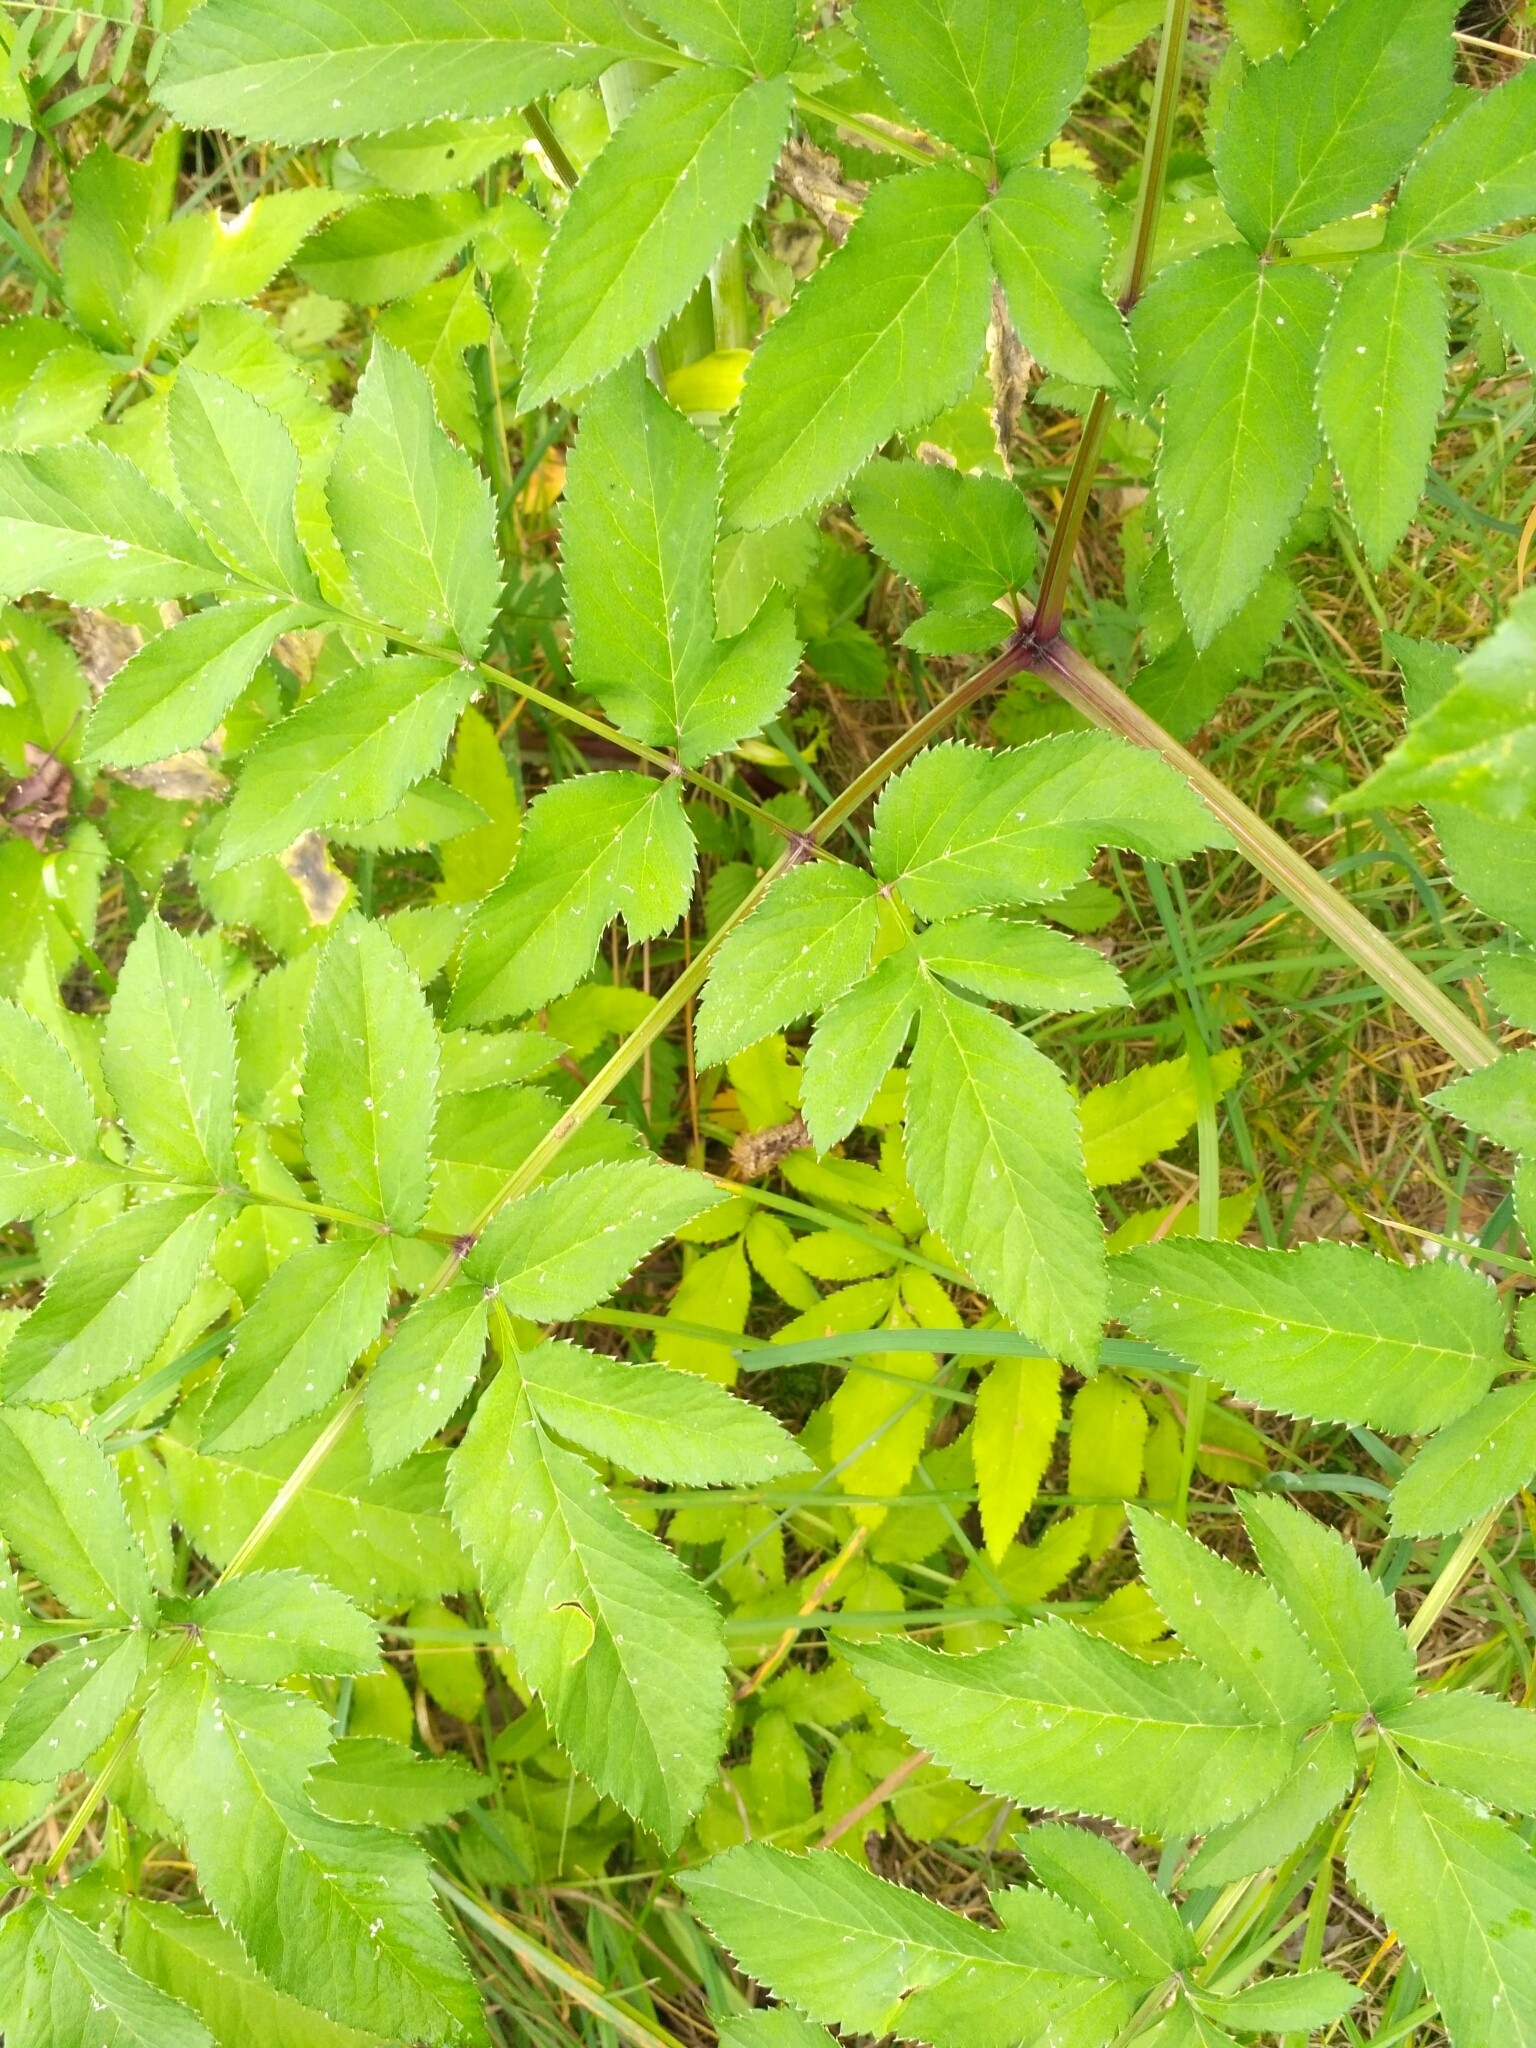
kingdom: Plantae
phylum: Tracheophyta
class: Magnoliopsida
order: Apiales
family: Apiaceae
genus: Angelica
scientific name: Angelica sylvestris
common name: Wild angelica
